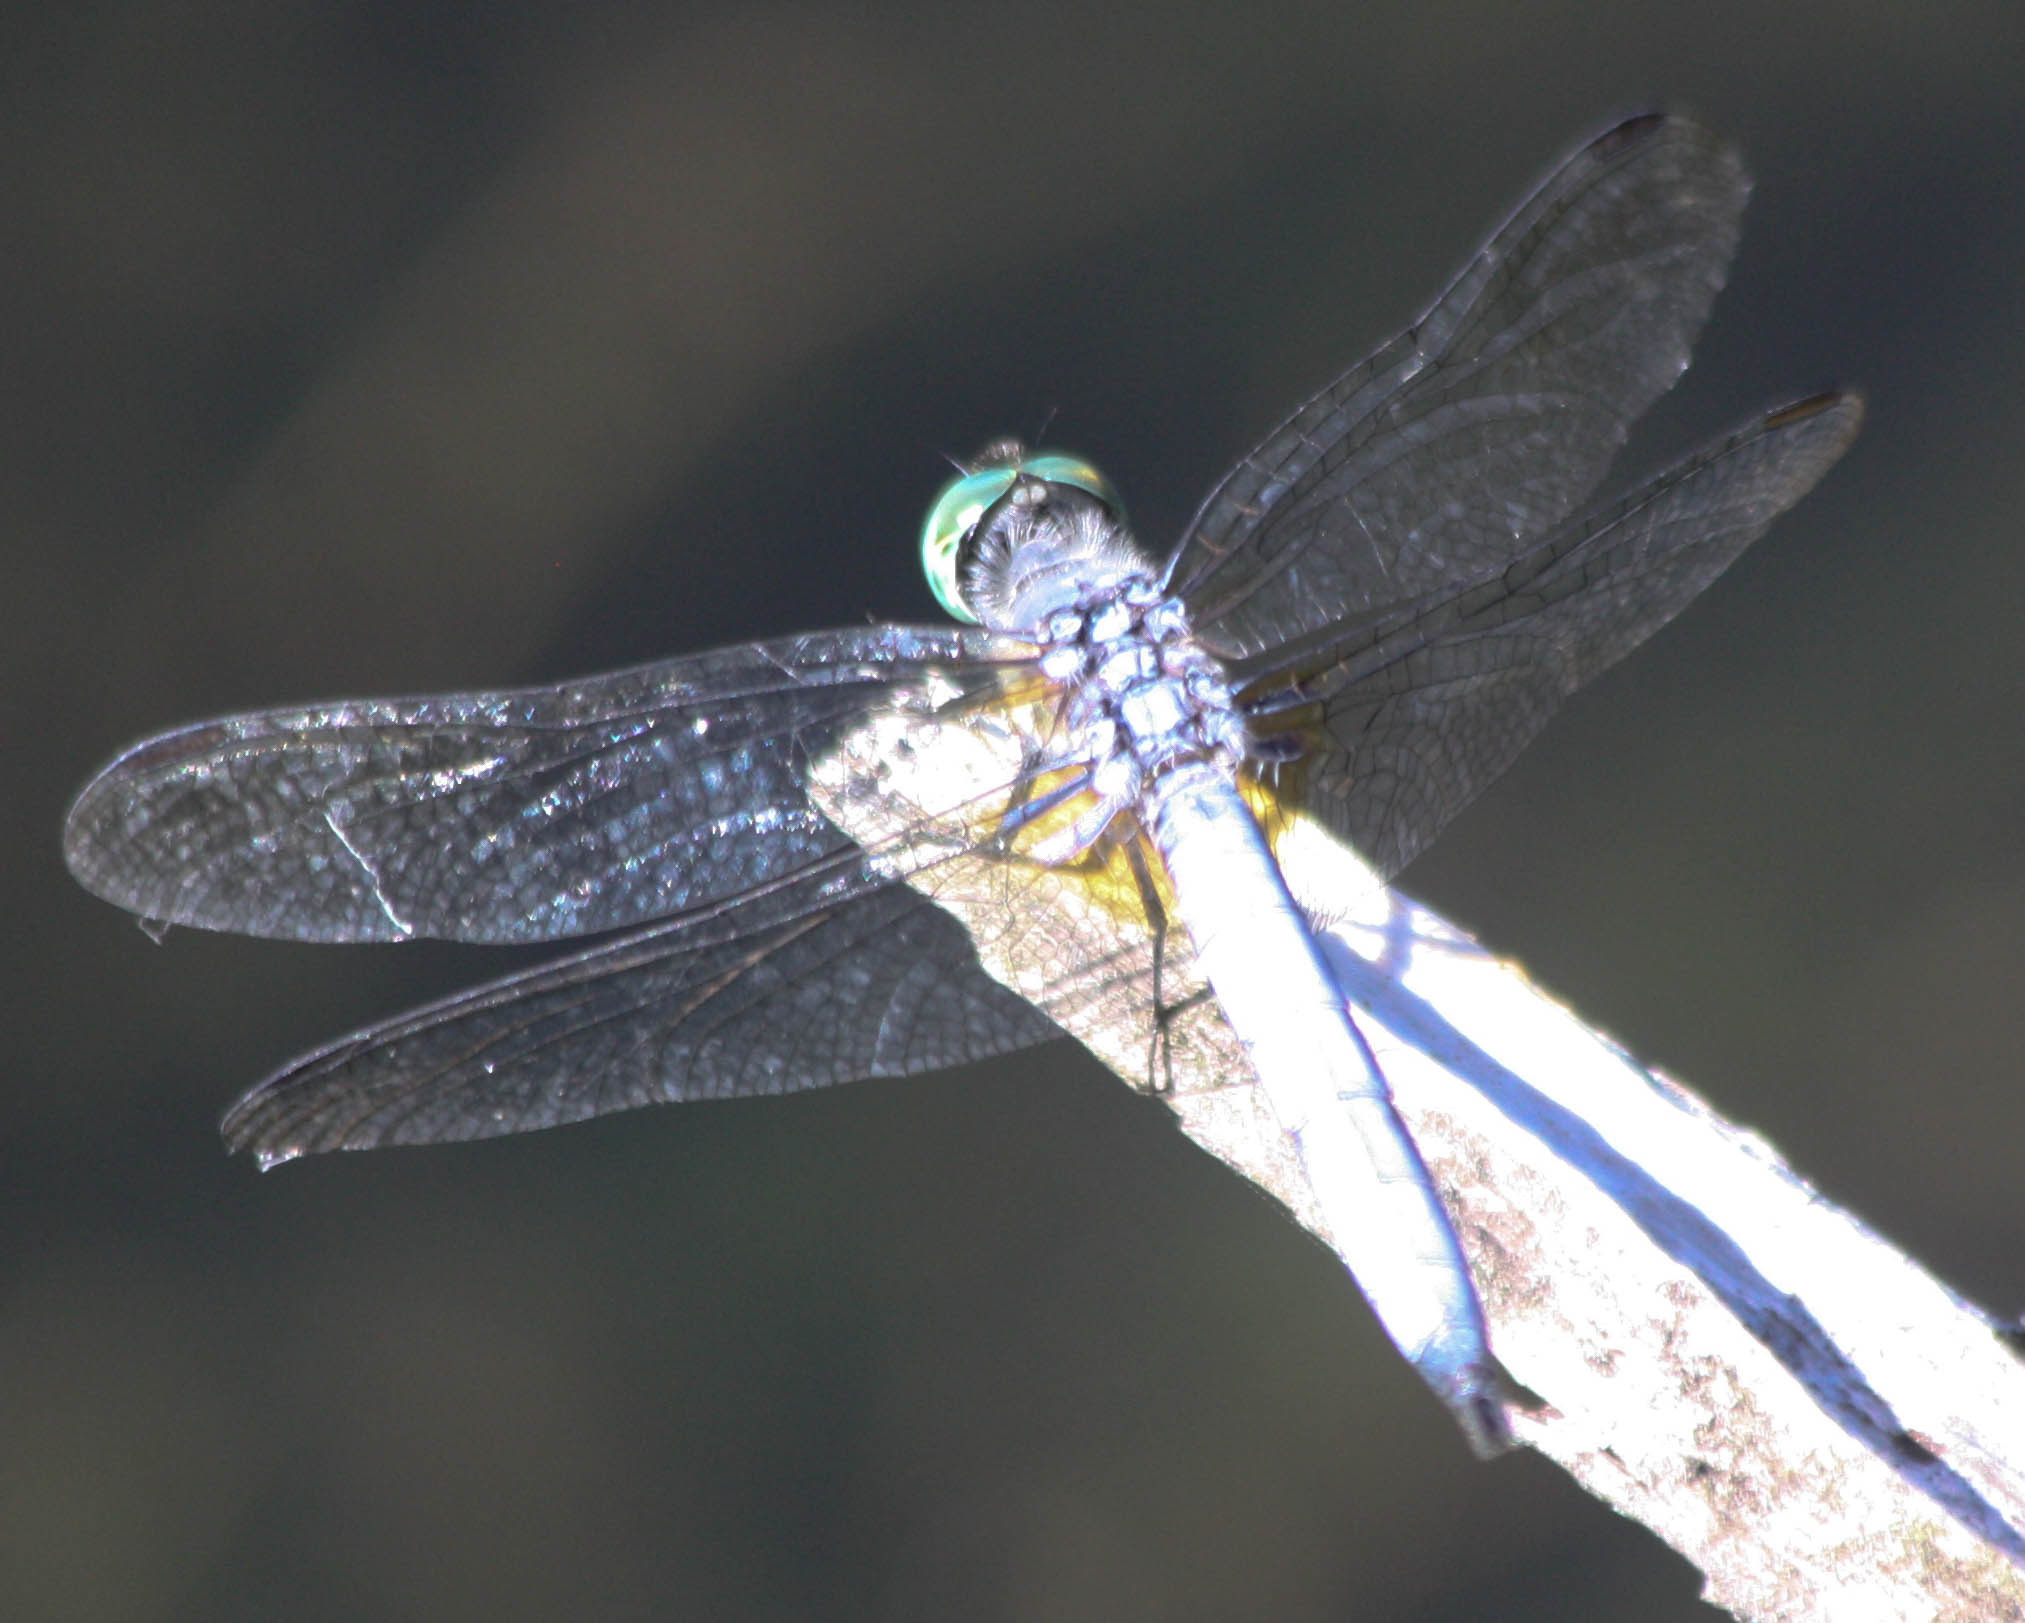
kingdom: Animalia
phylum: Arthropoda
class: Insecta
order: Odonata
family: Libellulidae
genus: Pachydiplax
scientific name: Pachydiplax longipennis
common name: Blue dasher
